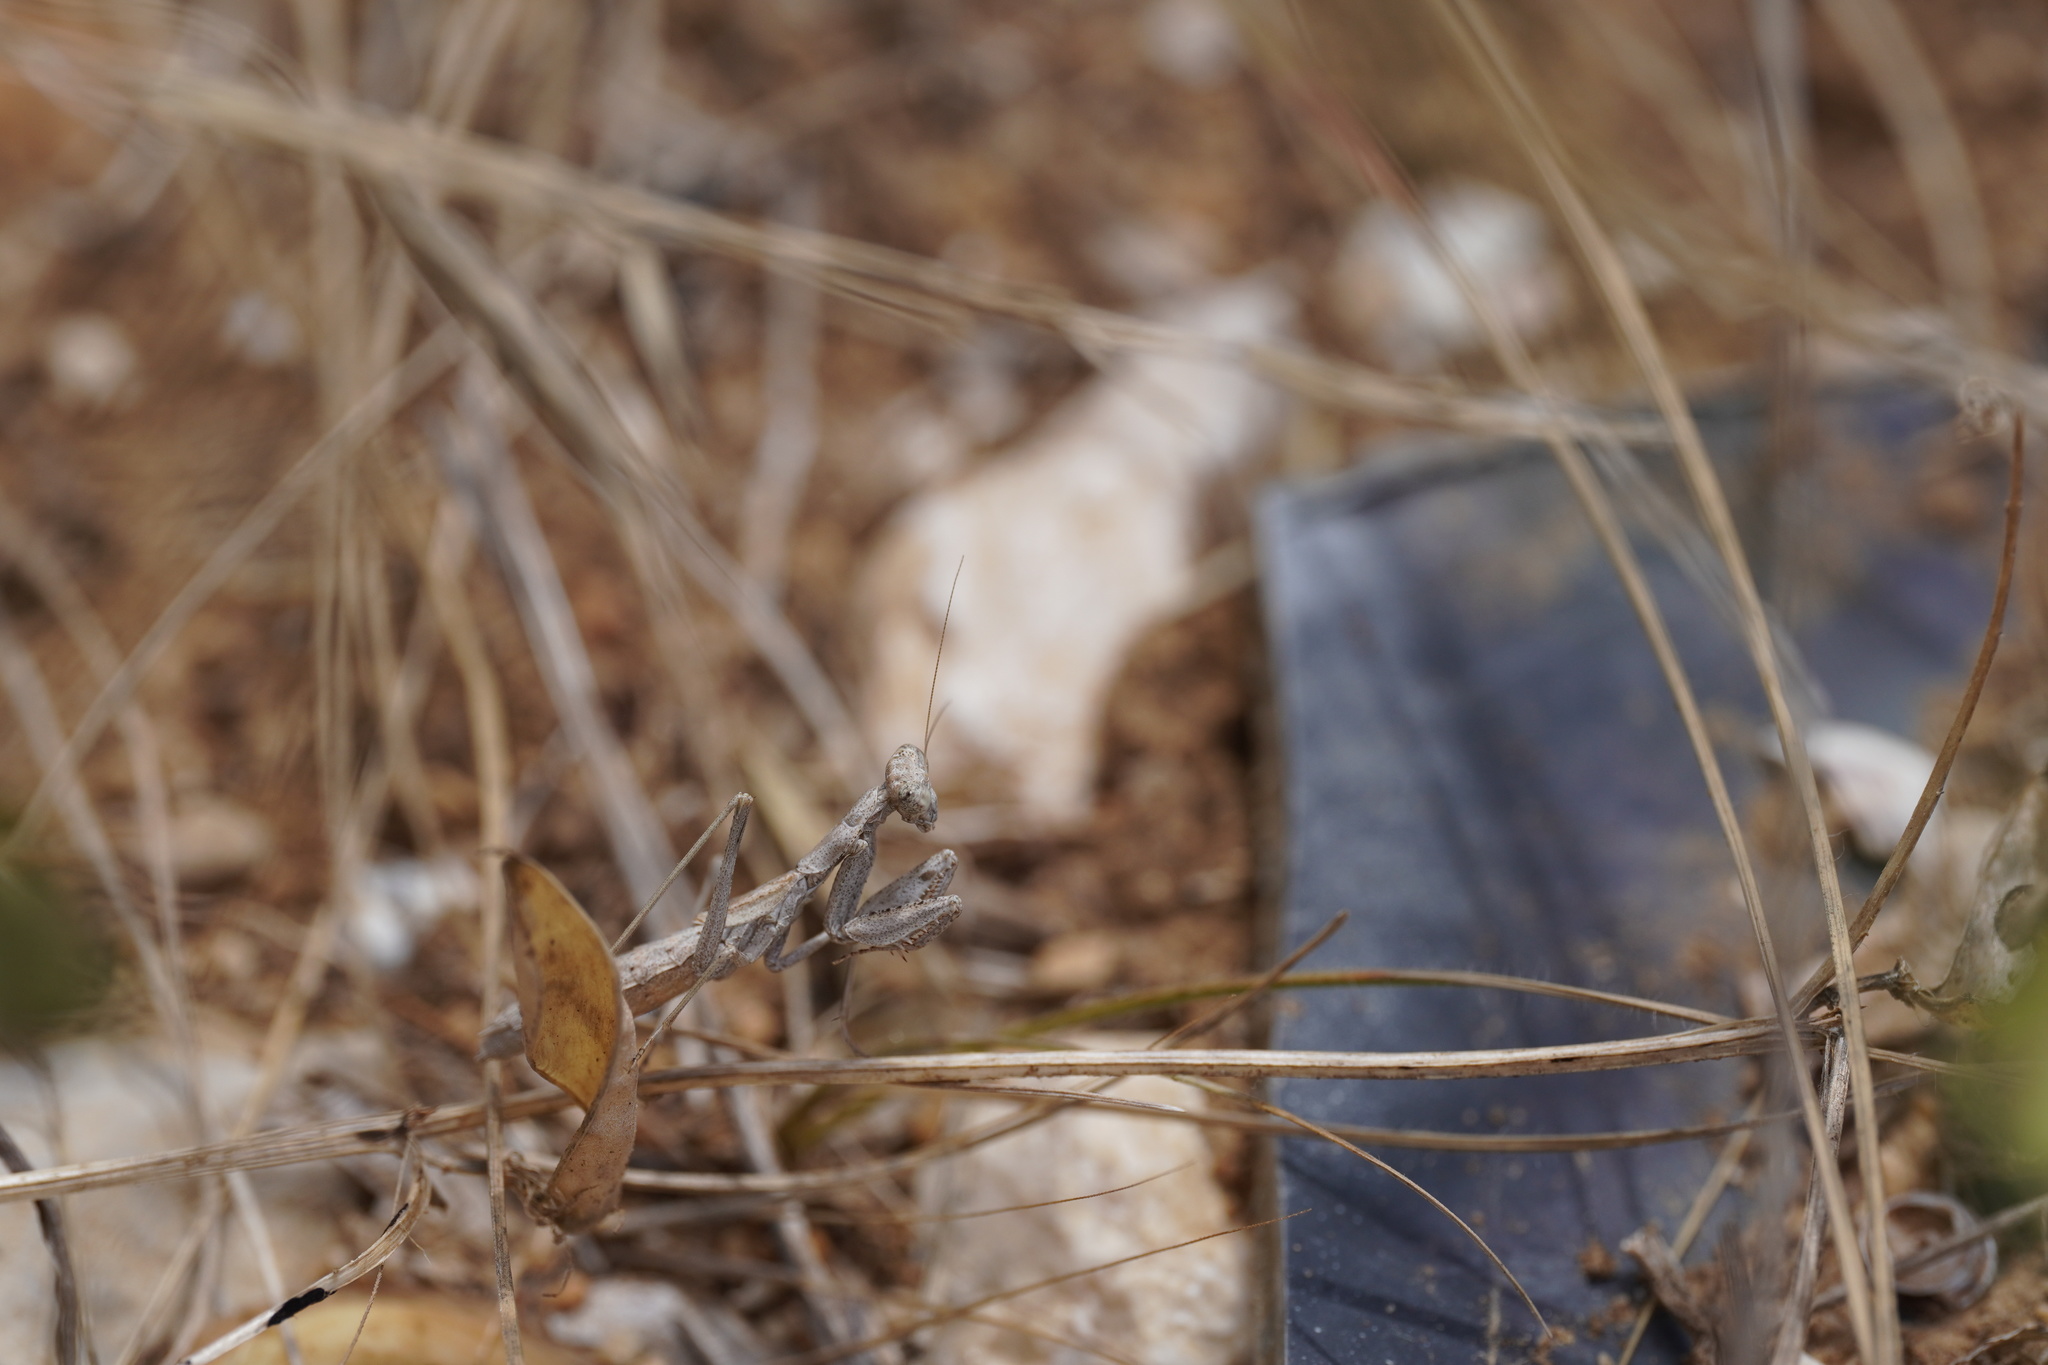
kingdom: Animalia
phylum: Arthropoda
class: Insecta
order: Mantodea
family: Amelidae
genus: Ameles
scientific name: Ameles decolor
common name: Dwarf mantis
